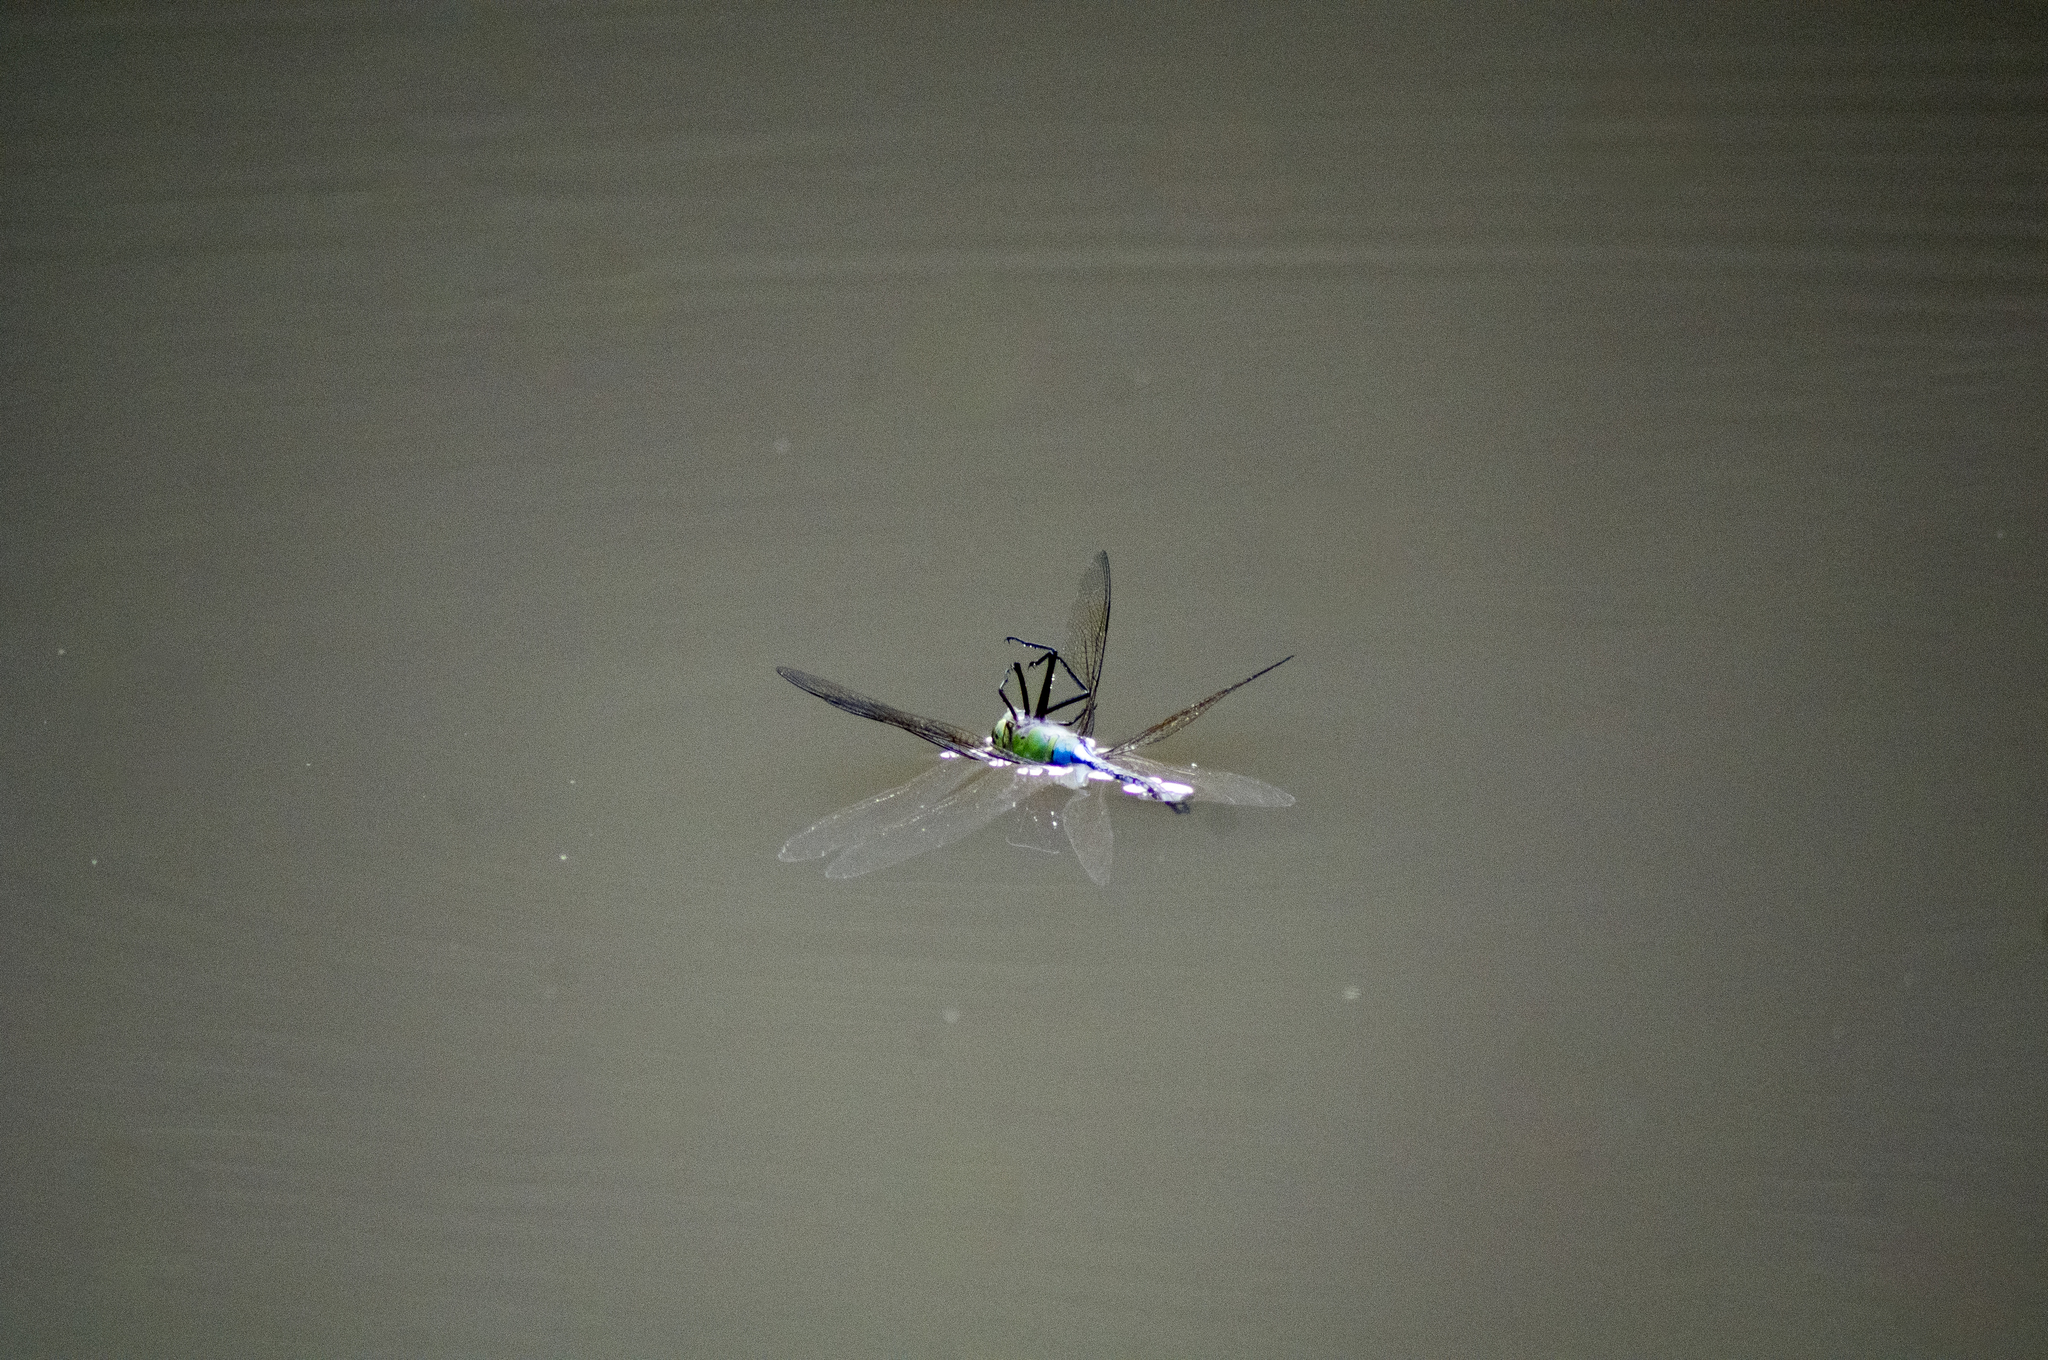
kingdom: Animalia
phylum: Arthropoda
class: Insecta
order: Odonata
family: Aeshnidae
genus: Anax
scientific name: Anax junius
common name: Common green darner
